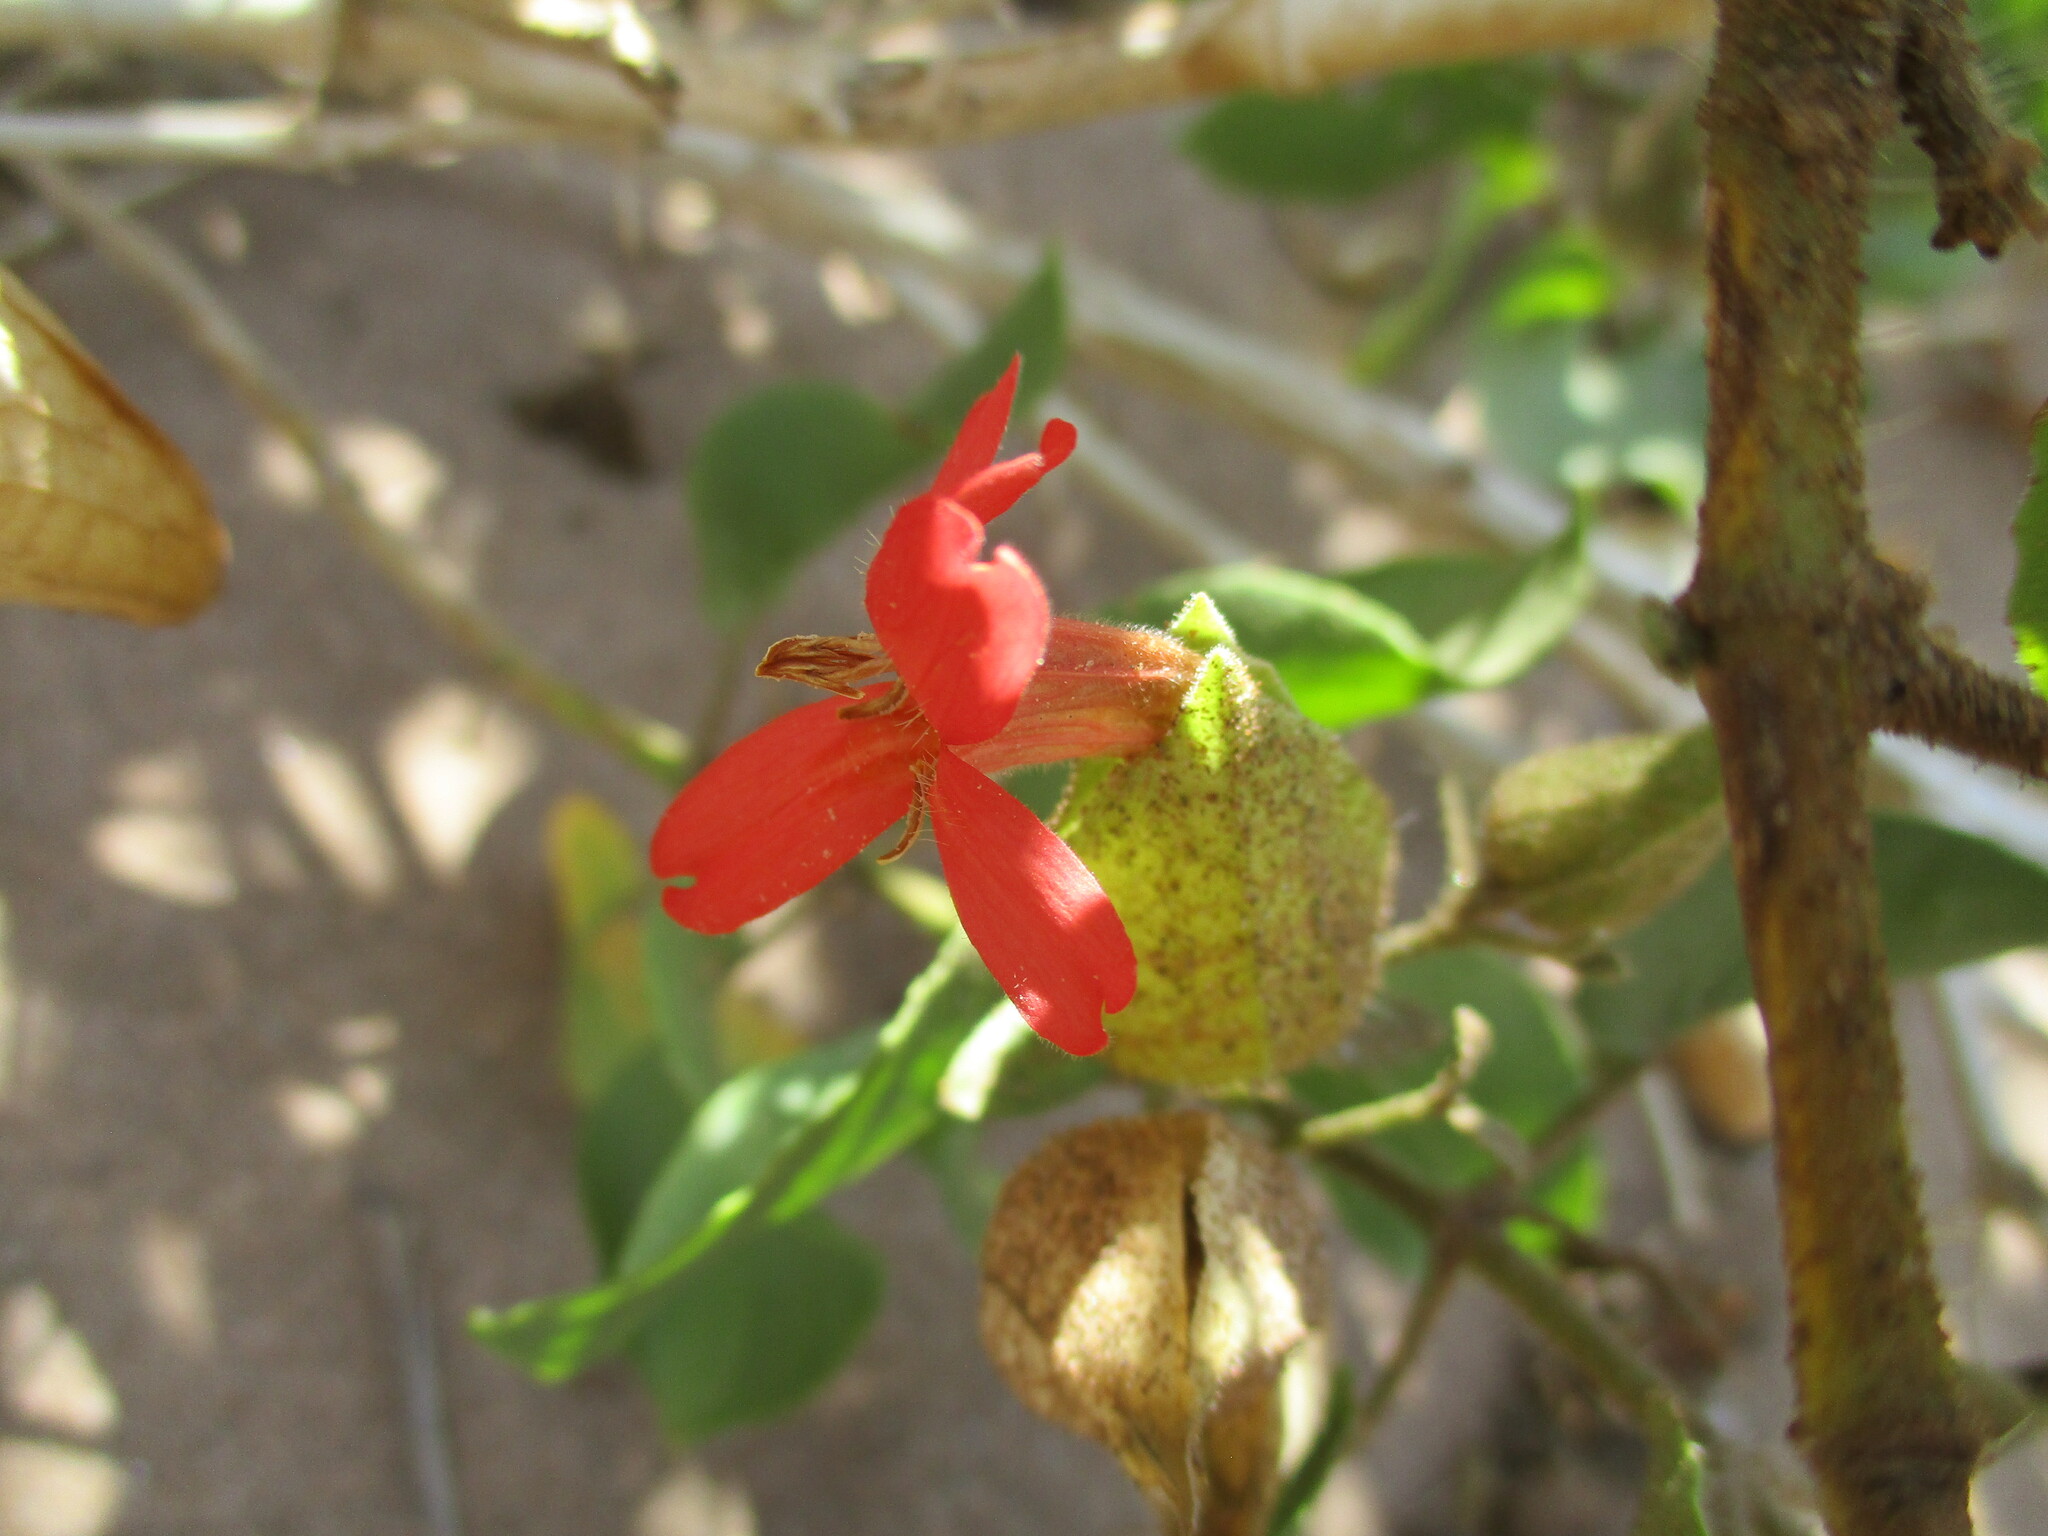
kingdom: Plantae
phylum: Tracheophyta
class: Magnoliopsida
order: Lamiales
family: Acanthaceae
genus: Petalidium
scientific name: Petalidium coccineum
